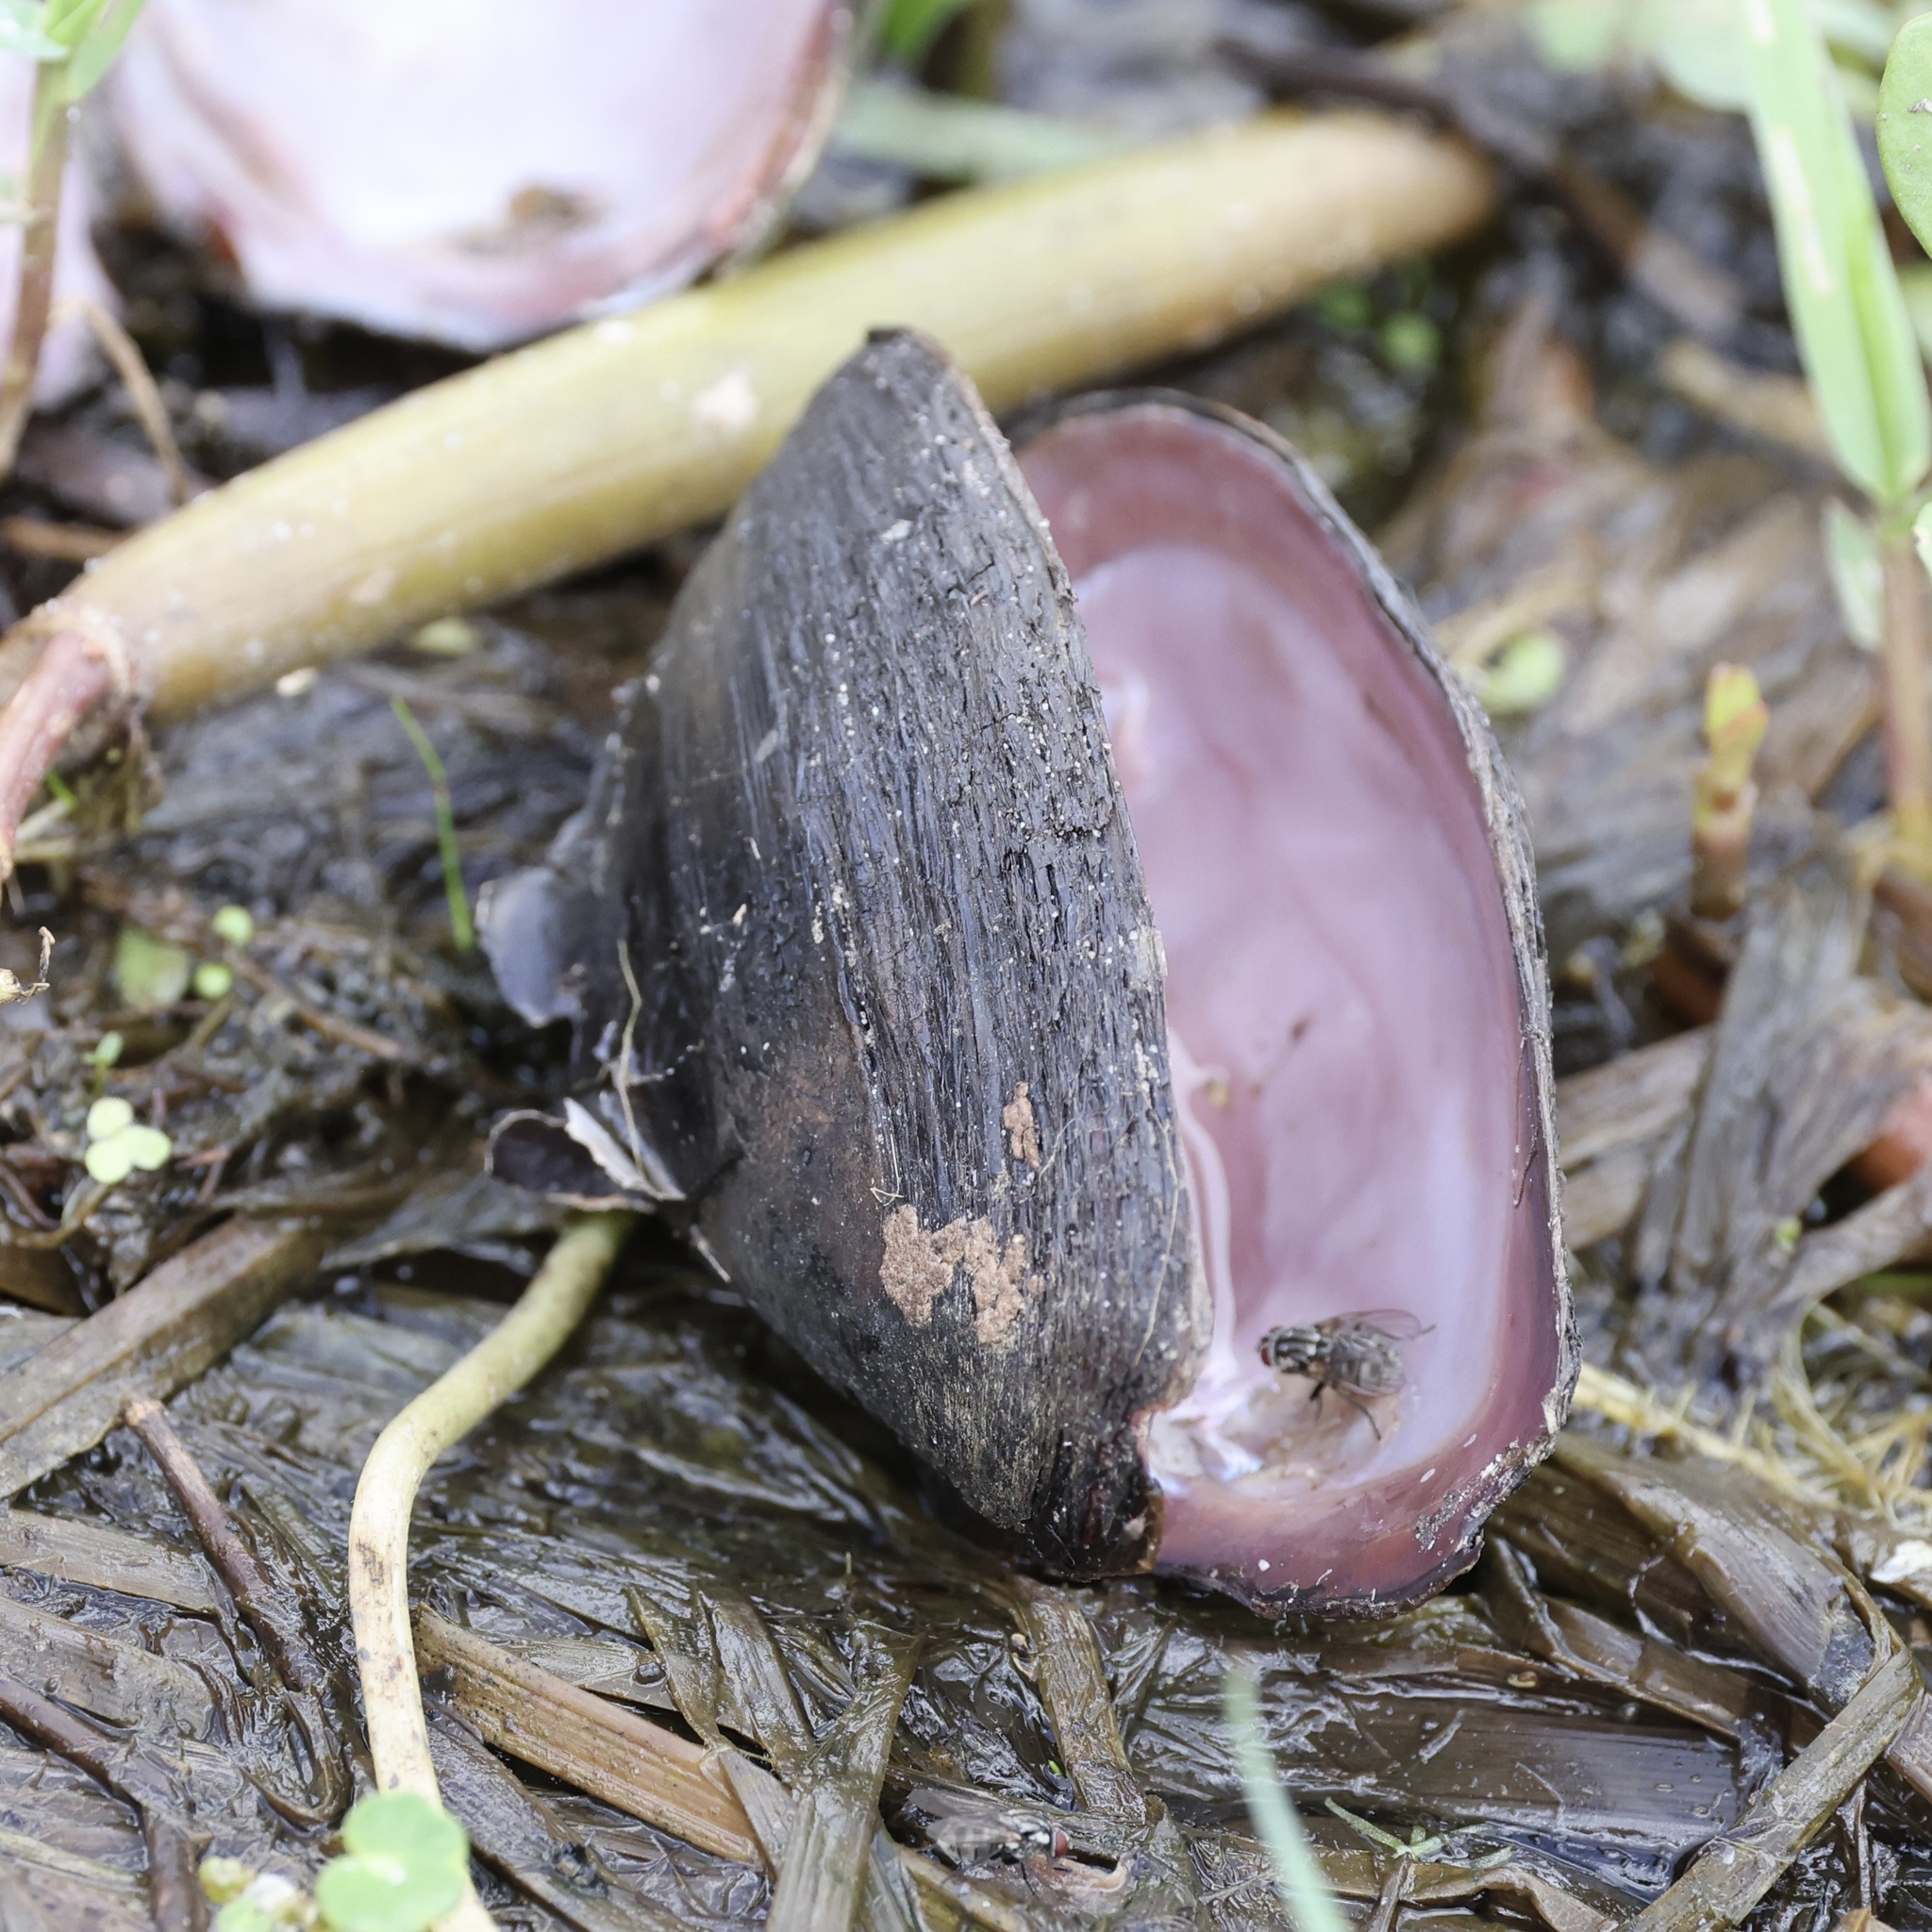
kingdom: Animalia
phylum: Mollusca
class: Bivalvia
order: Unionida
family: Unionidae
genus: Elliptio
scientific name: Elliptio jayensis
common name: Florida spike
